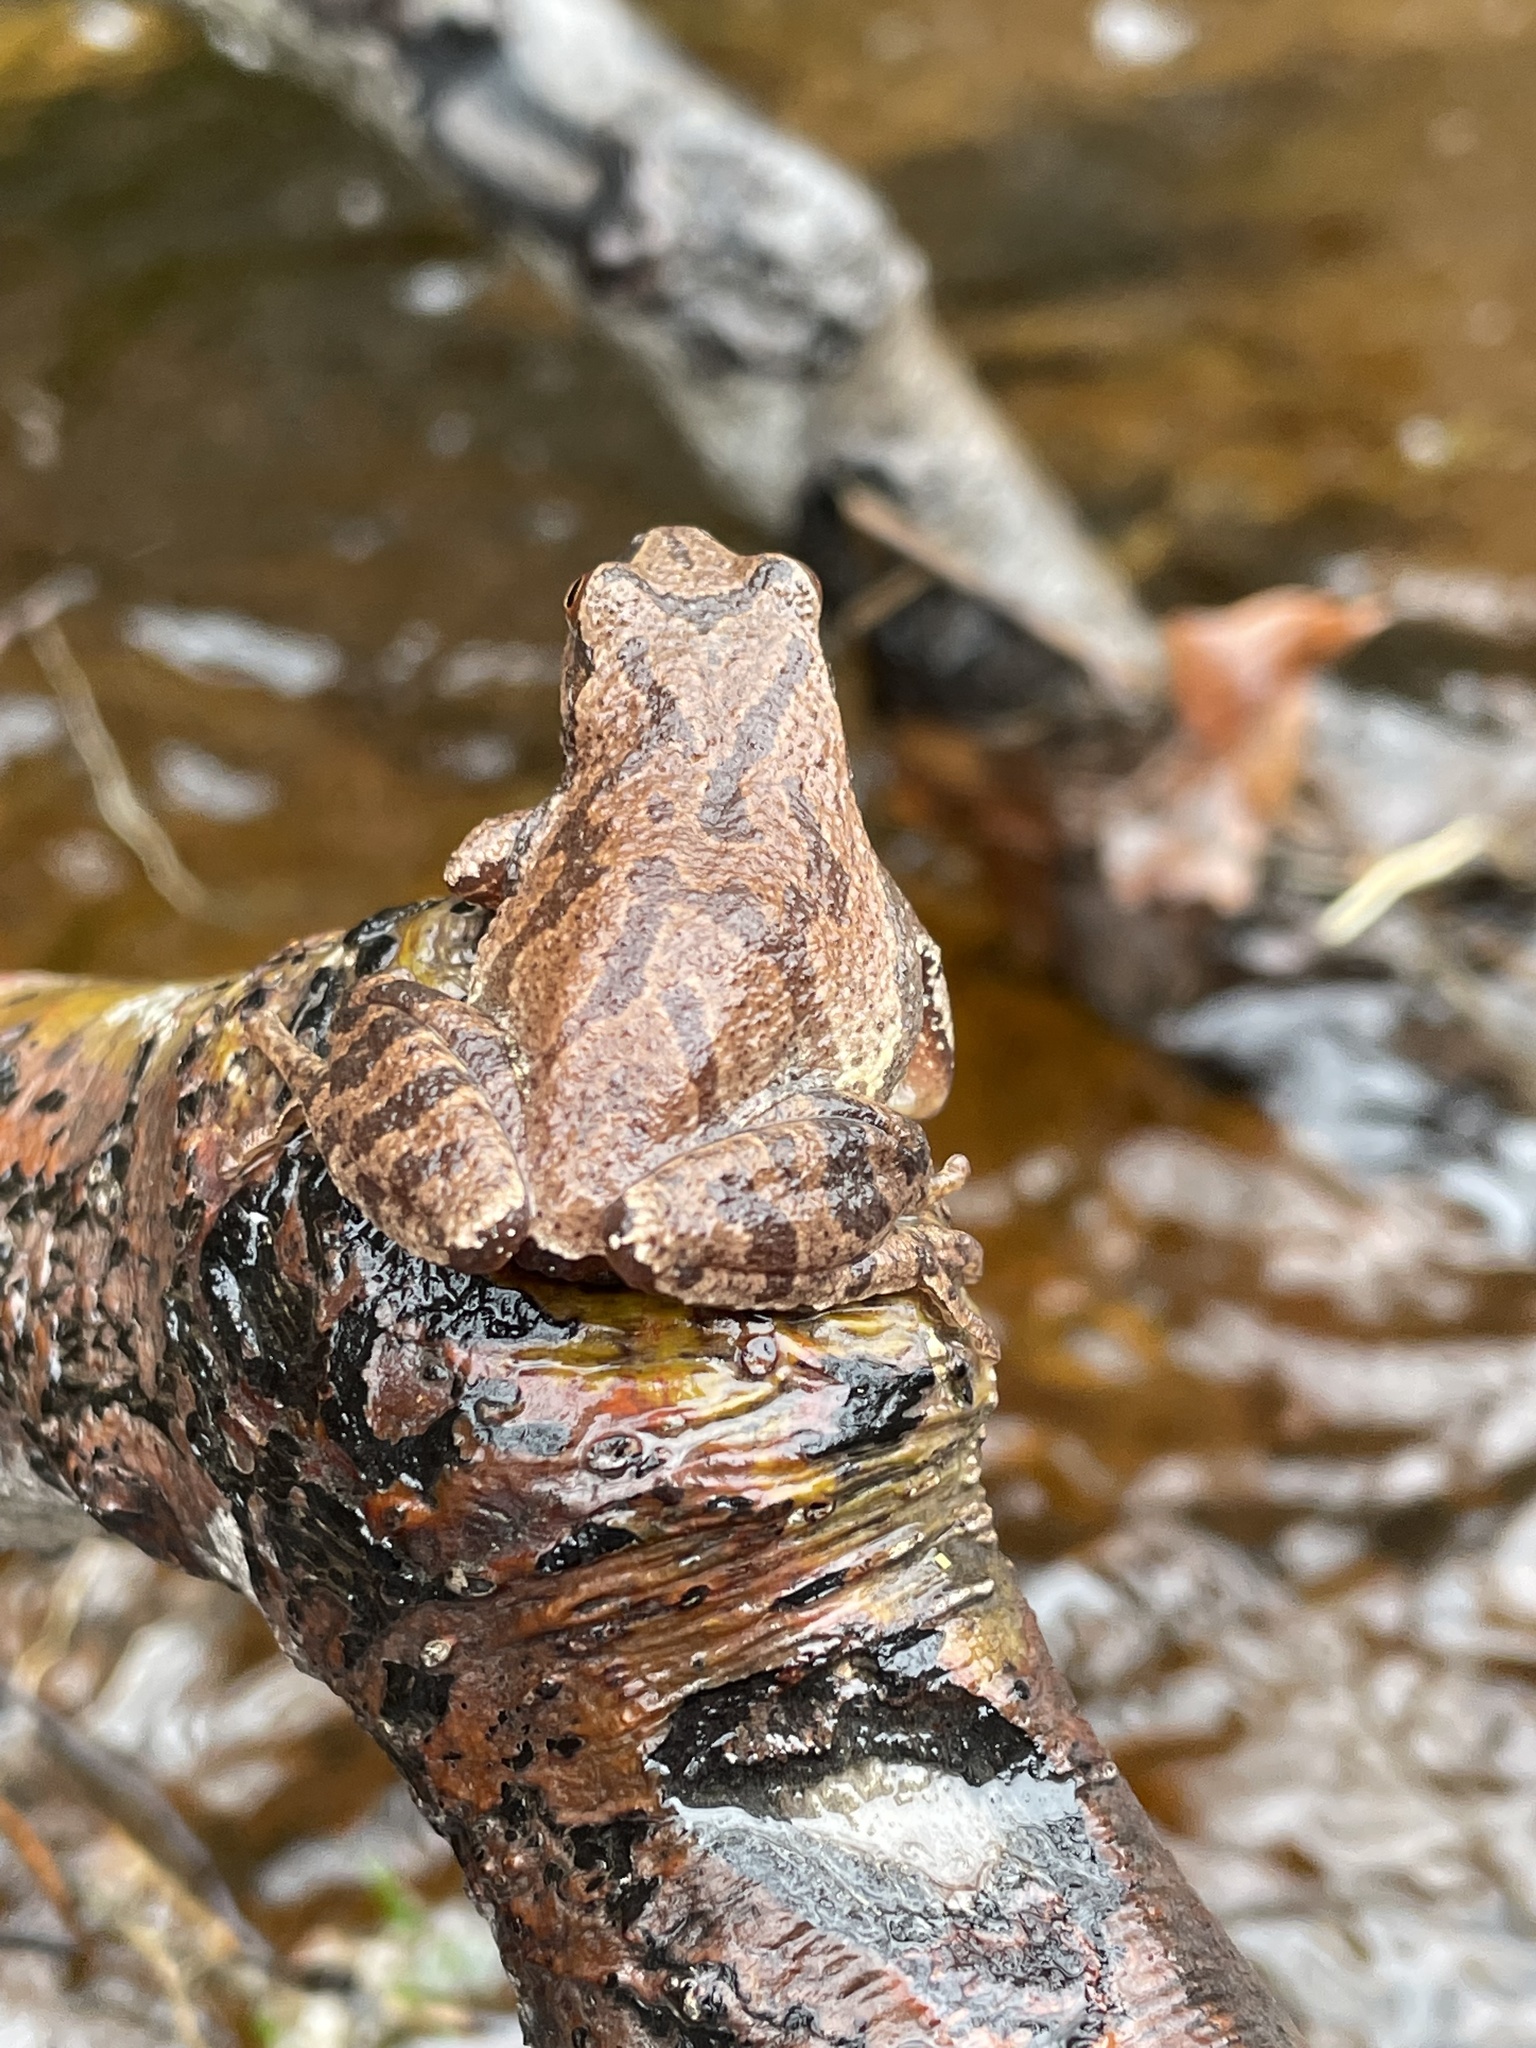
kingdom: Animalia
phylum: Chordata
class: Amphibia
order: Anura
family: Hylidae
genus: Pseudacris
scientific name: Pseudacris crucifer
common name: Spring peeper
